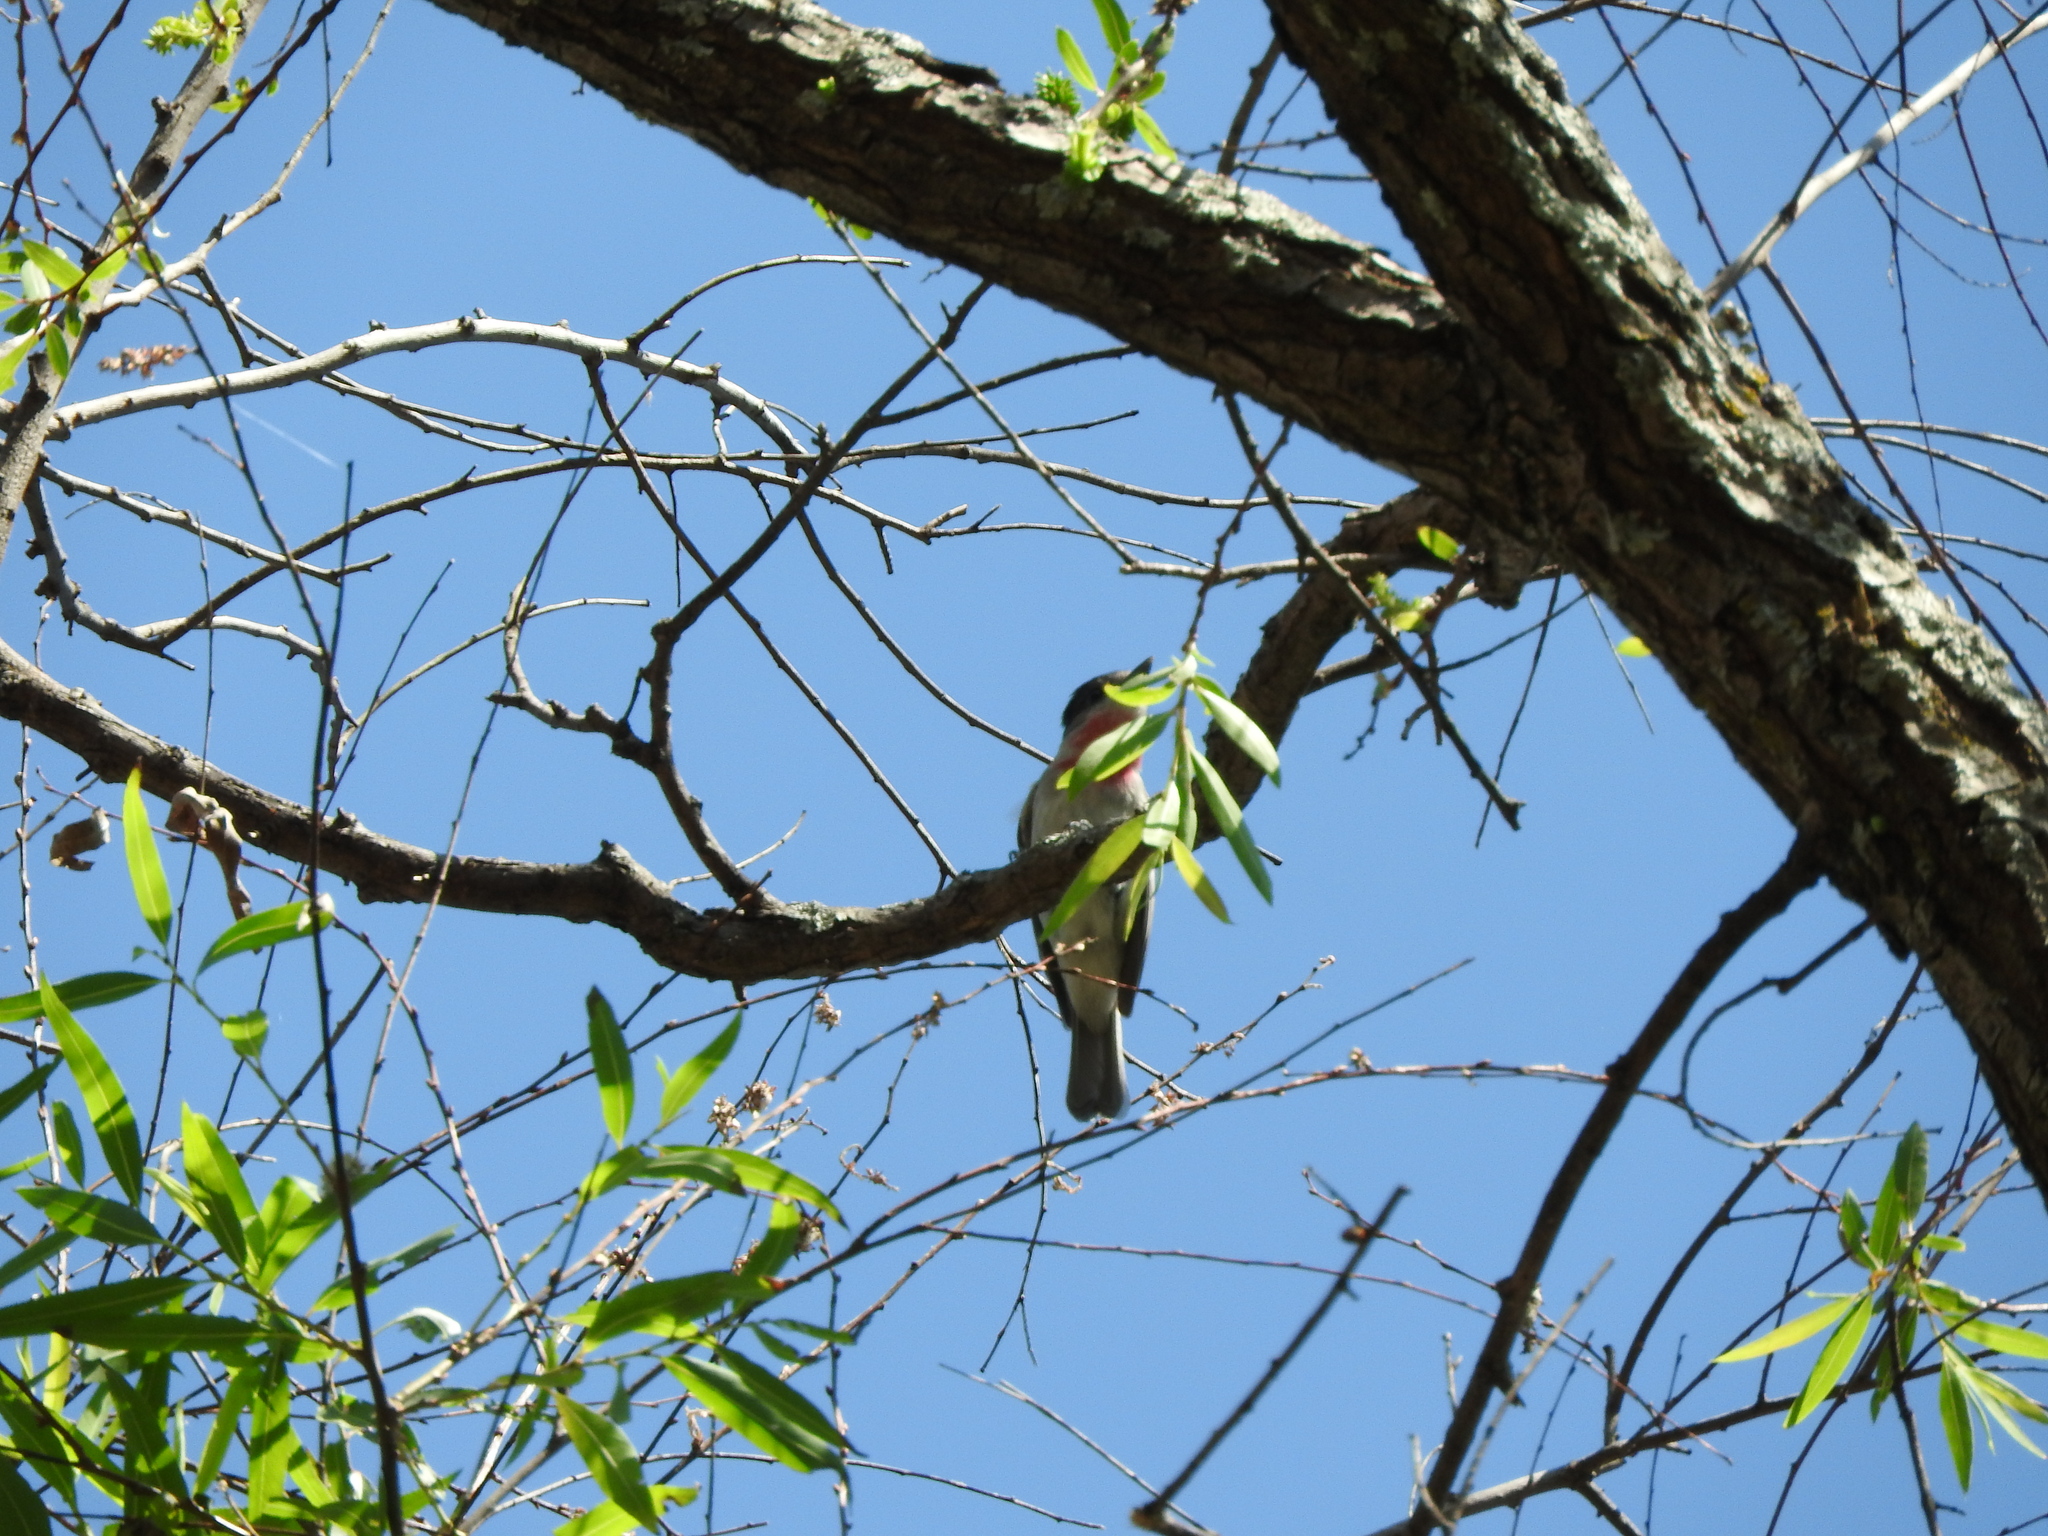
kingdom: Animalia
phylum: Chordata
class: Aves
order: Passeriformes
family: Cotingidae
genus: Pachyramphus
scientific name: Pachyramphus aglaiae
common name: Rose-throated becard
